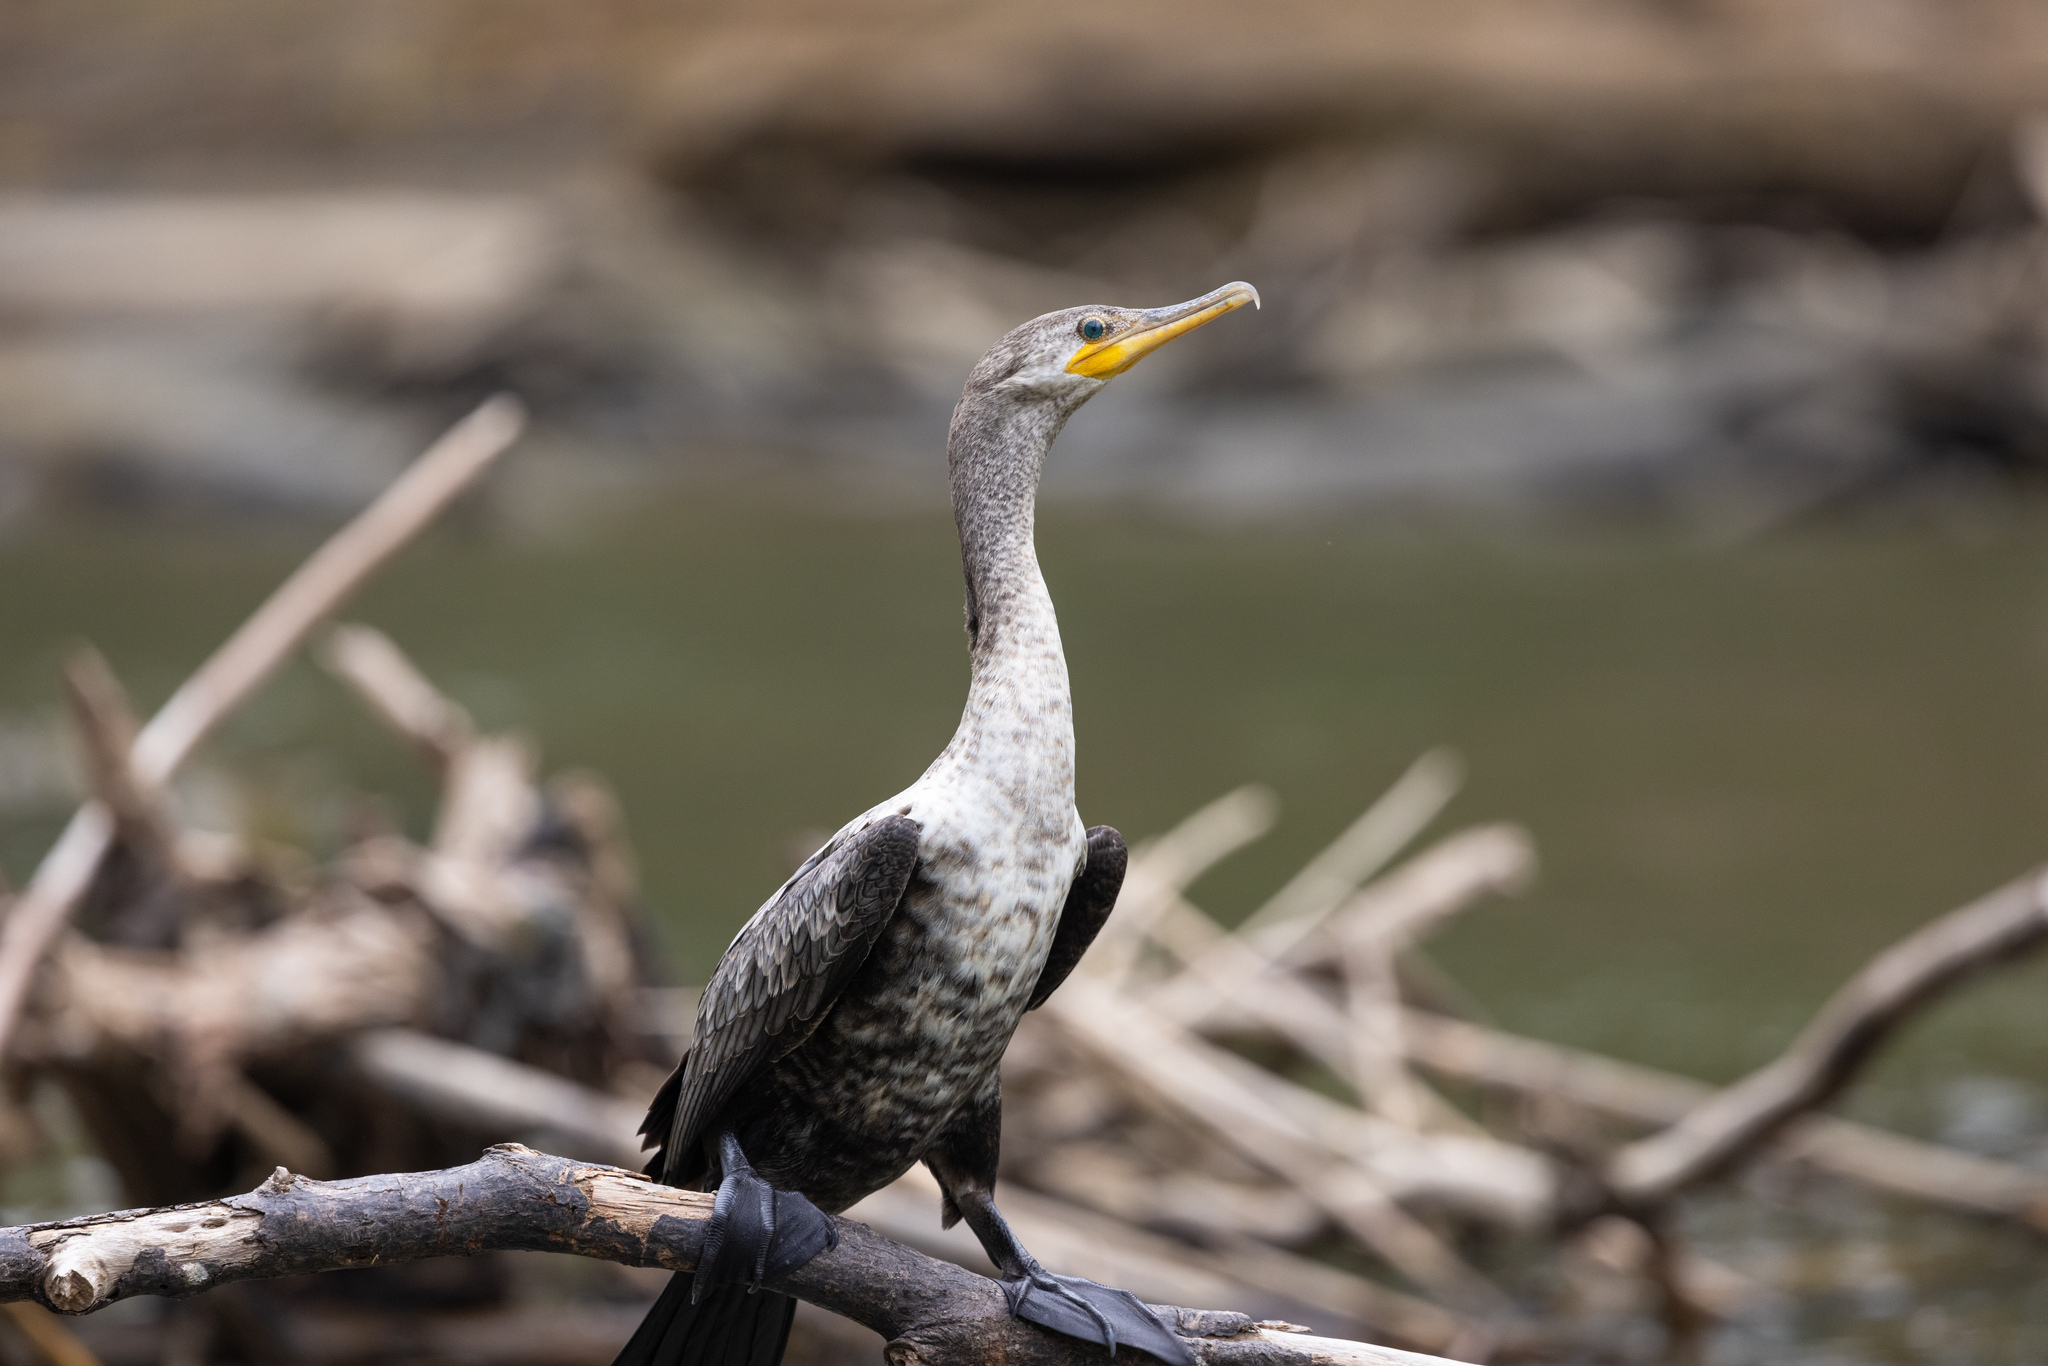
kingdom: Animalia
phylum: Chordata
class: Aves
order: Suliformes
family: Phalacrocoracidae
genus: Phalacrocorax
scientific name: Phalacrocorax brasilianus
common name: Neotropic cormorant
